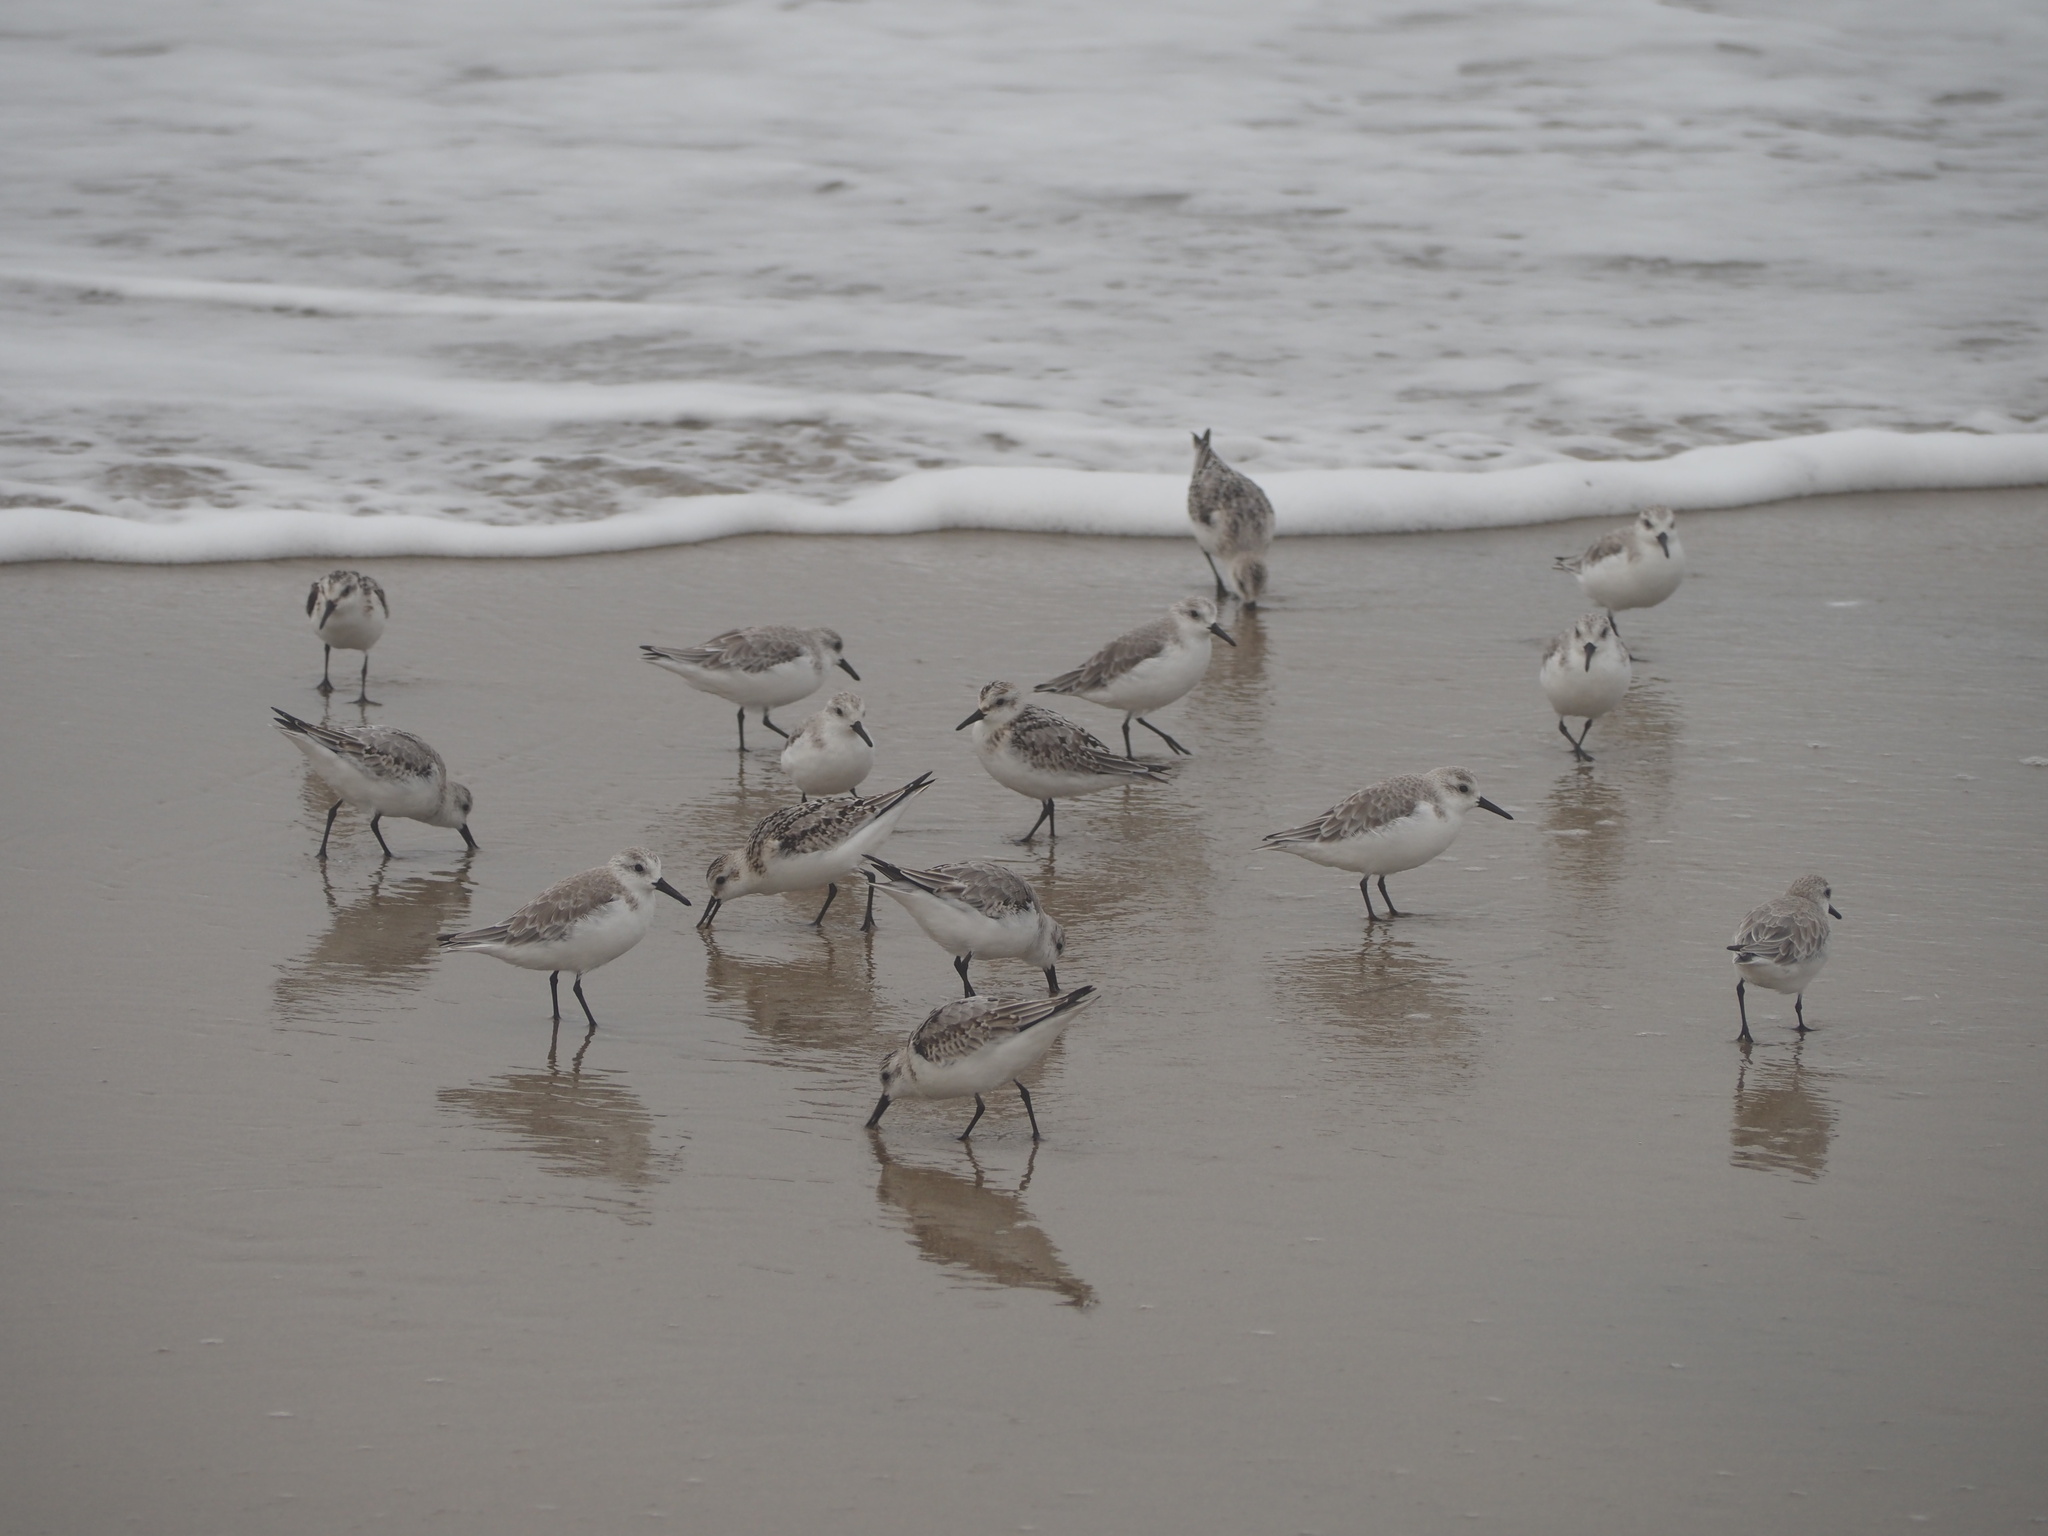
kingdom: Animalia
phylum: Chordata
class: Aves
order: Charadriiformes
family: Scolopacidae
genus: Calidris
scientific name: Calidris alba
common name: Sanderling
